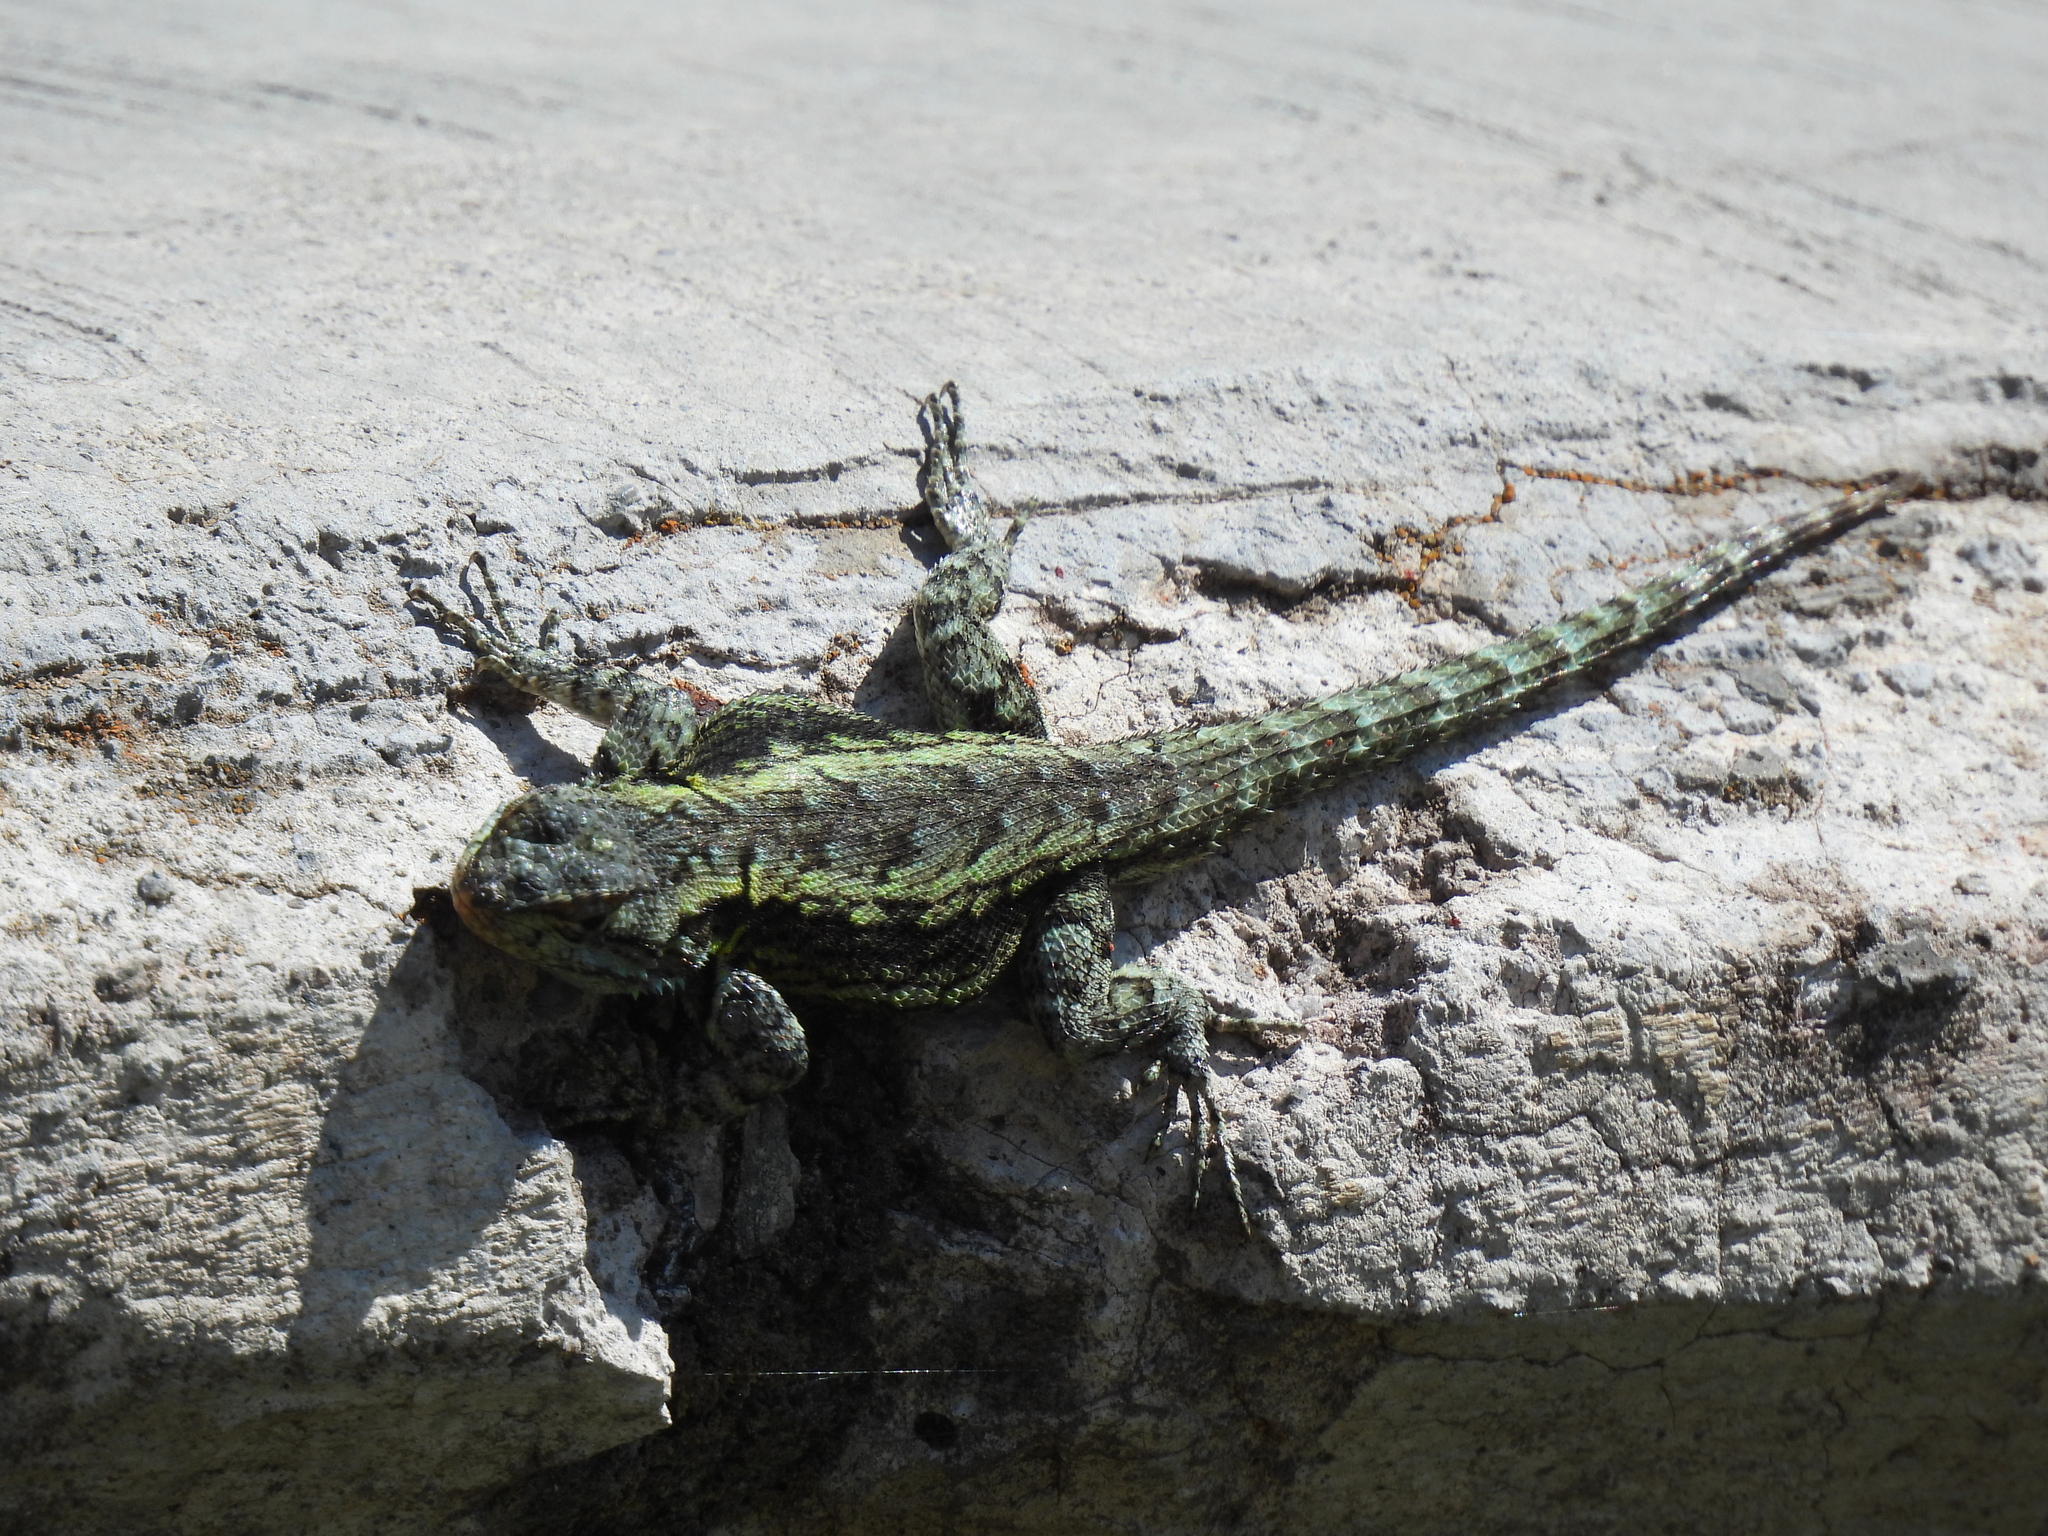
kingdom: Animalia
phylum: Chordata
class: Squamata
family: Phrynosomatidae
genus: Sceloporus
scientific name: Sceloporus anahuacus
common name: Anahuacan bunchgrass lizard
